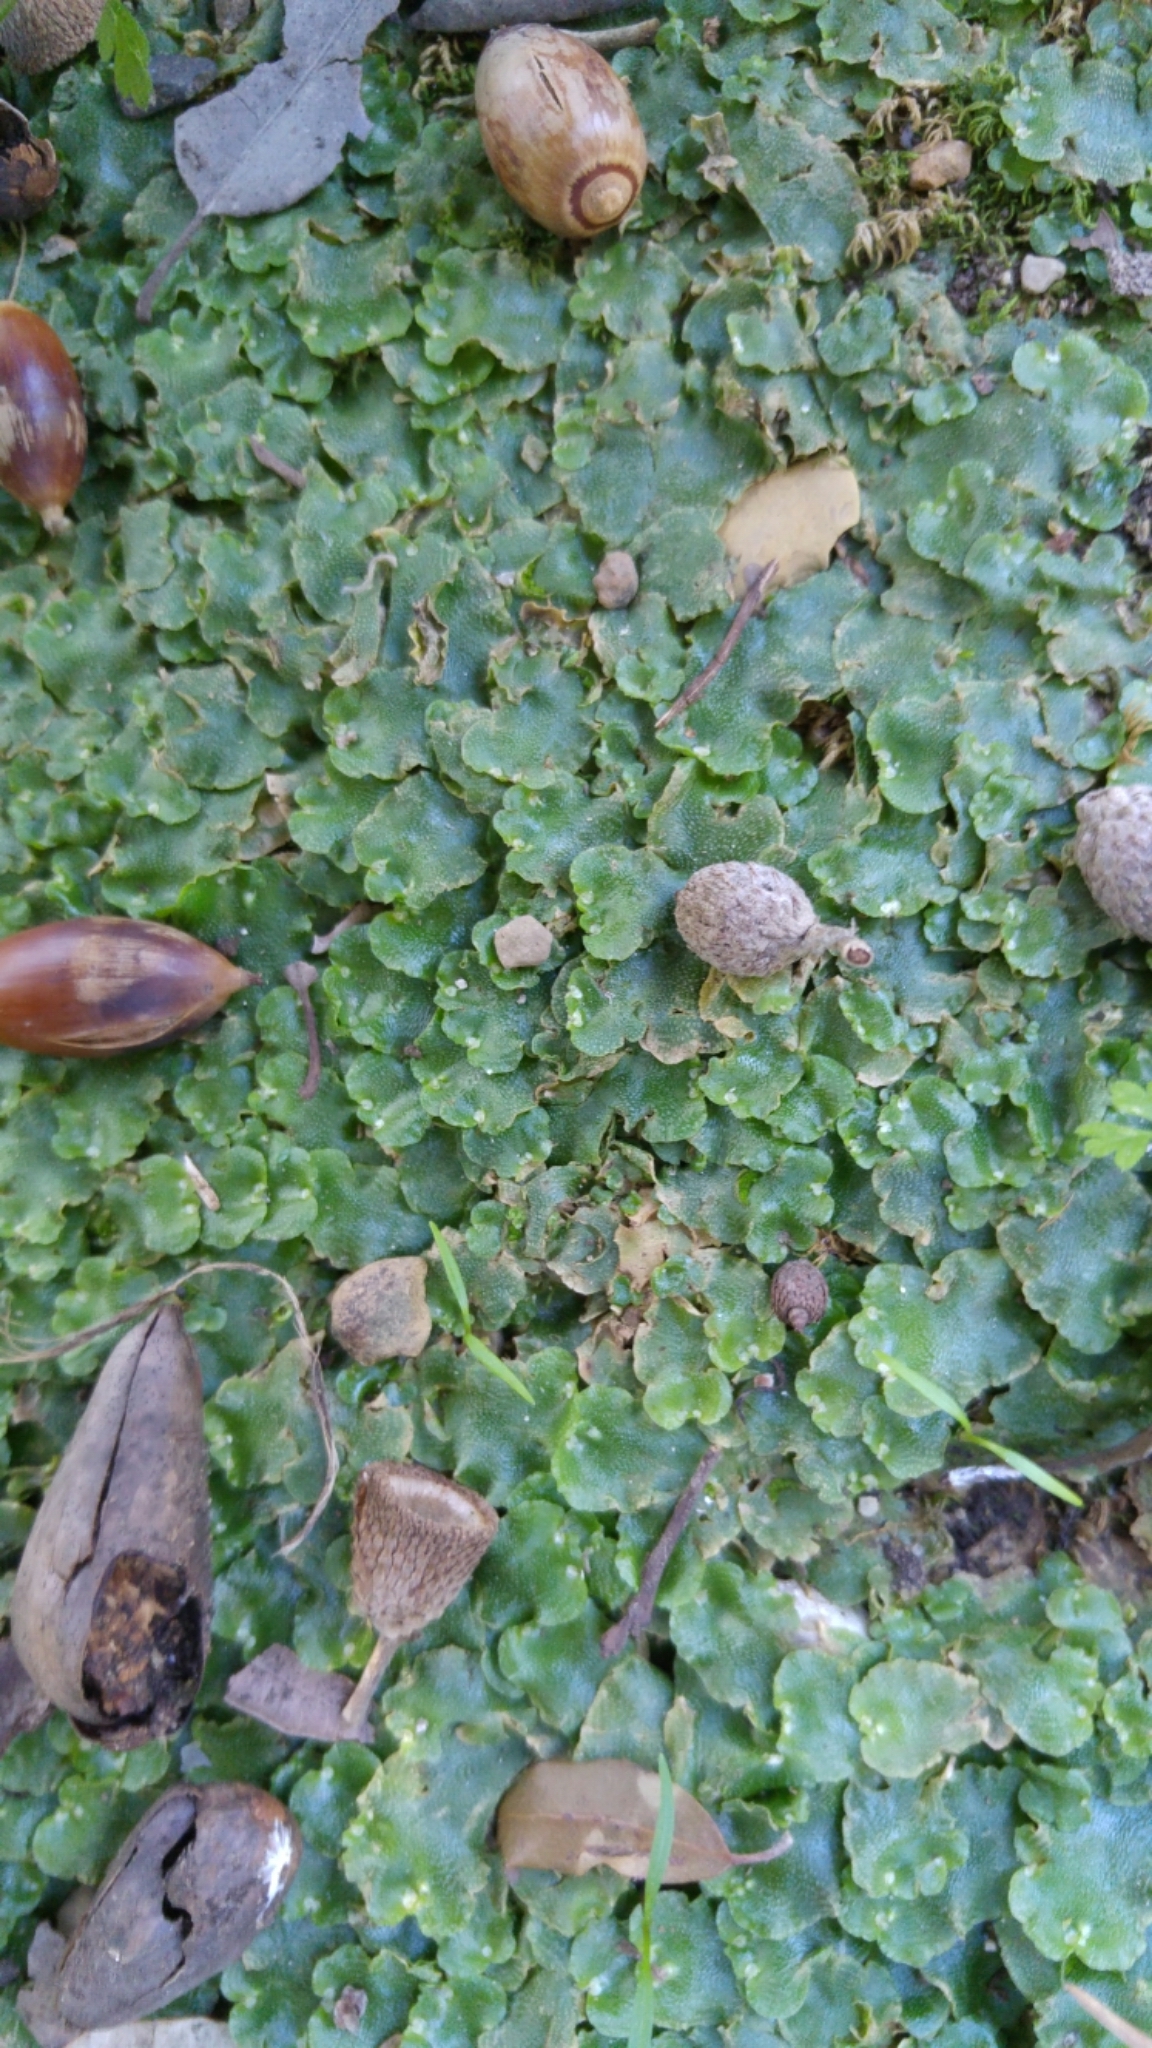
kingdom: Plantae
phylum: Marchantiophyta
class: Marchantiopsida
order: Lunulariales
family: Lunulariaceae
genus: Lunularia
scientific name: Lunularia cruciata
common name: Crescent-cup liverwort
